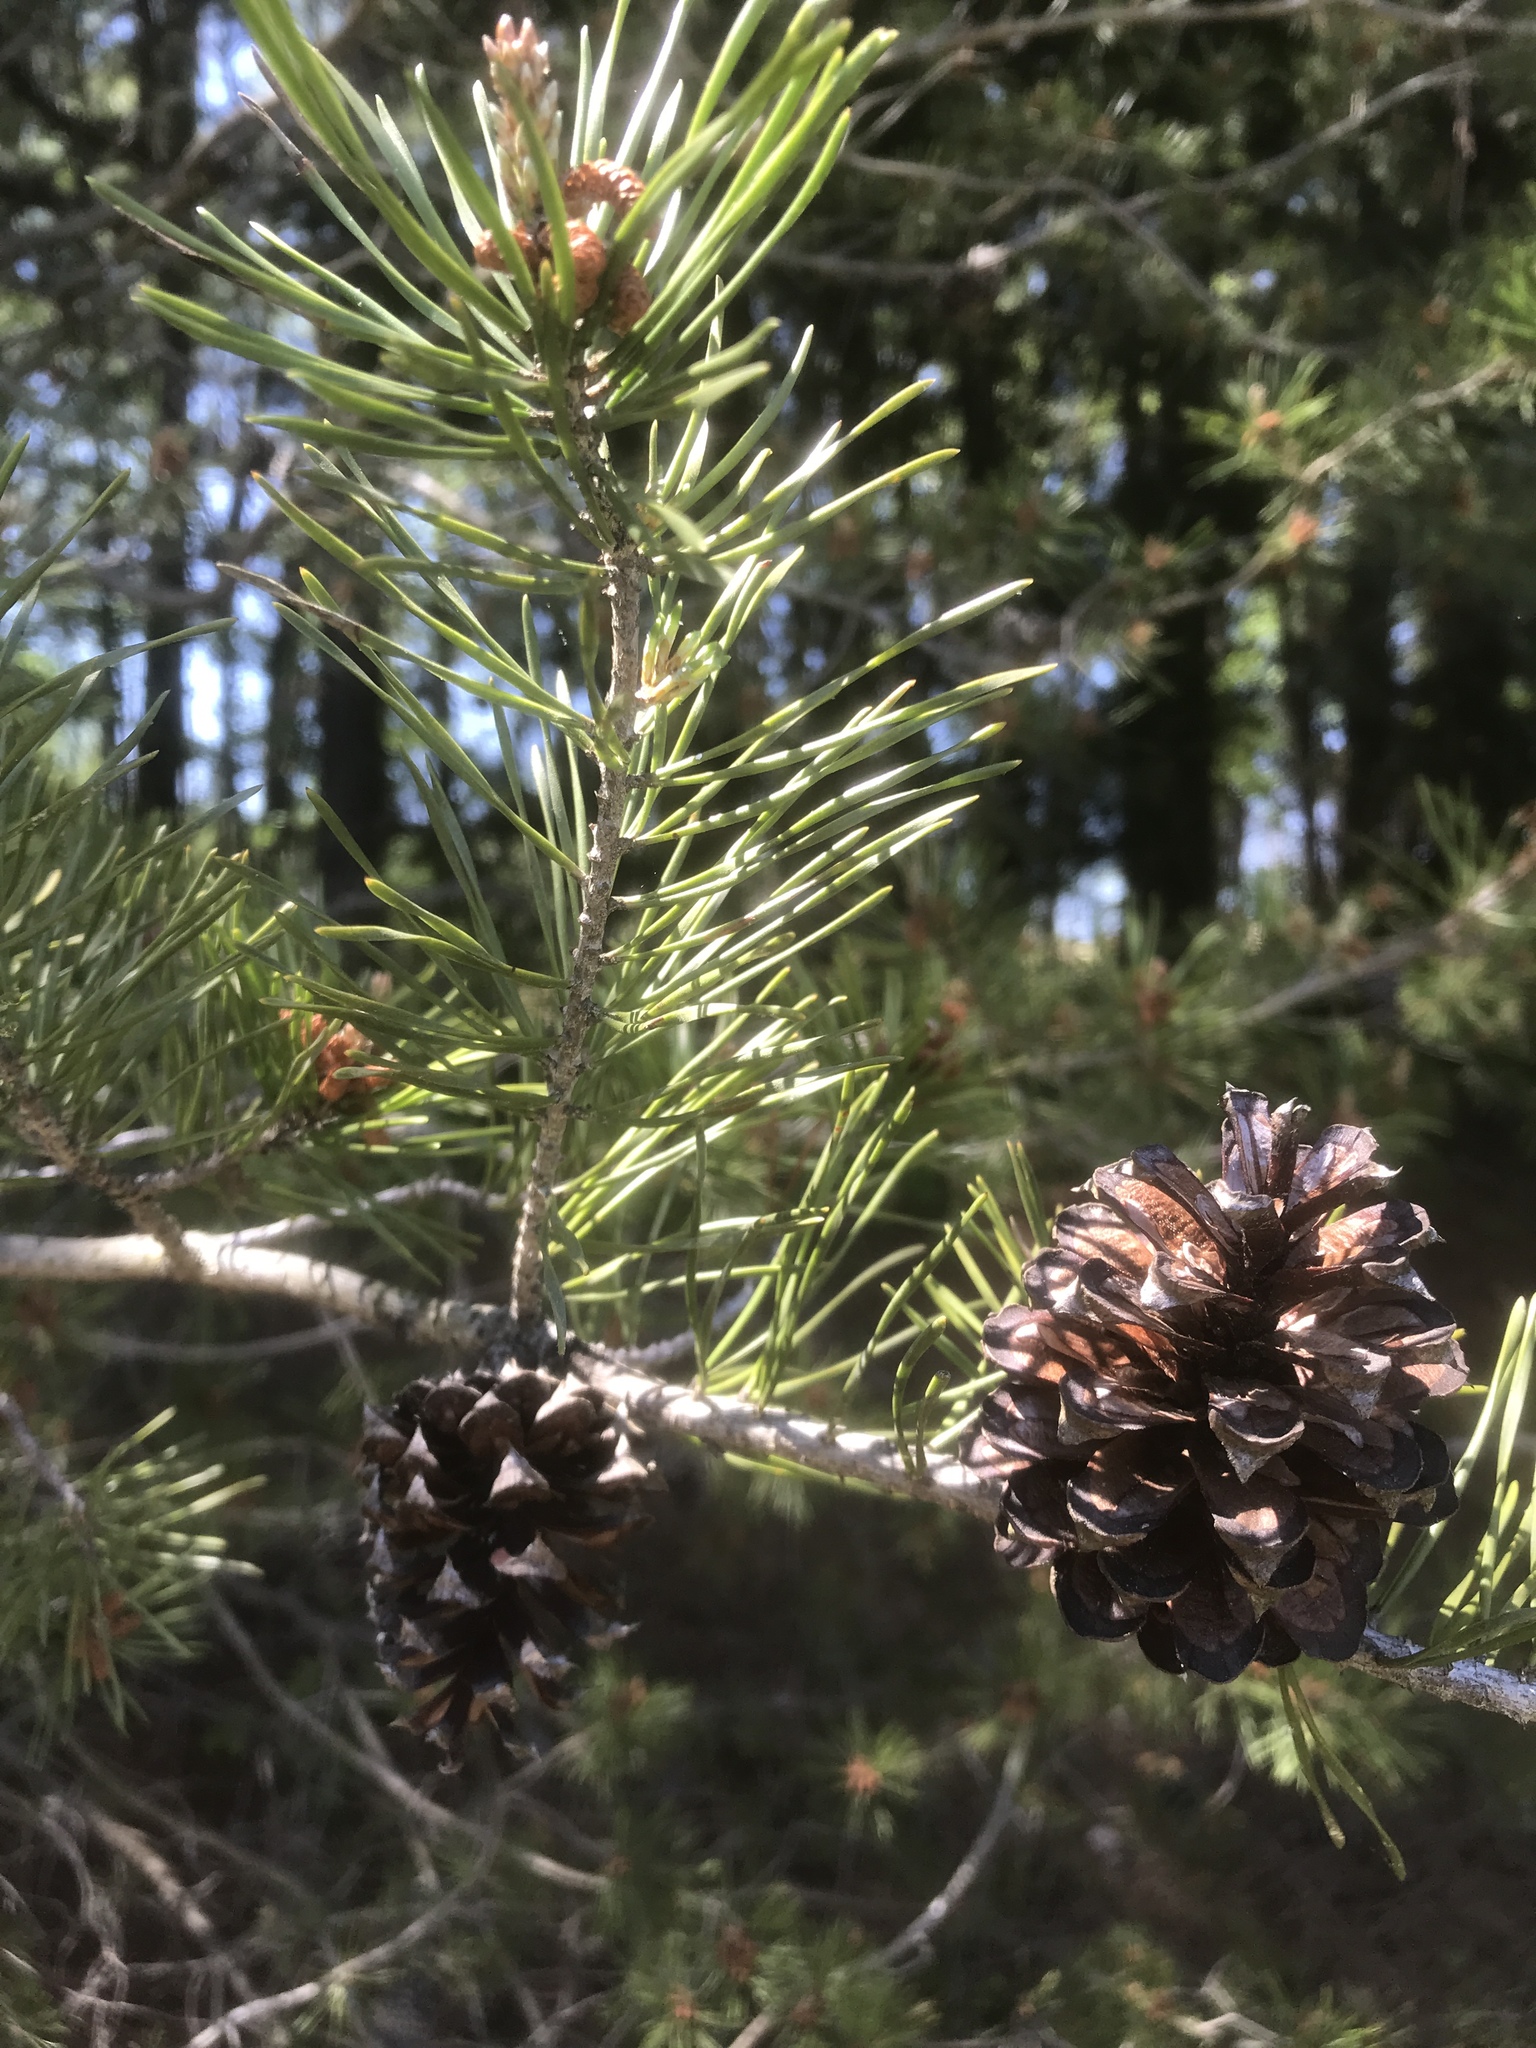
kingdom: Plantae
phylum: Tracheophyta
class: Pinopsida
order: Pinales
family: Pinaceae
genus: Pinus
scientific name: Pinus virginiana
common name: Scrub pine
